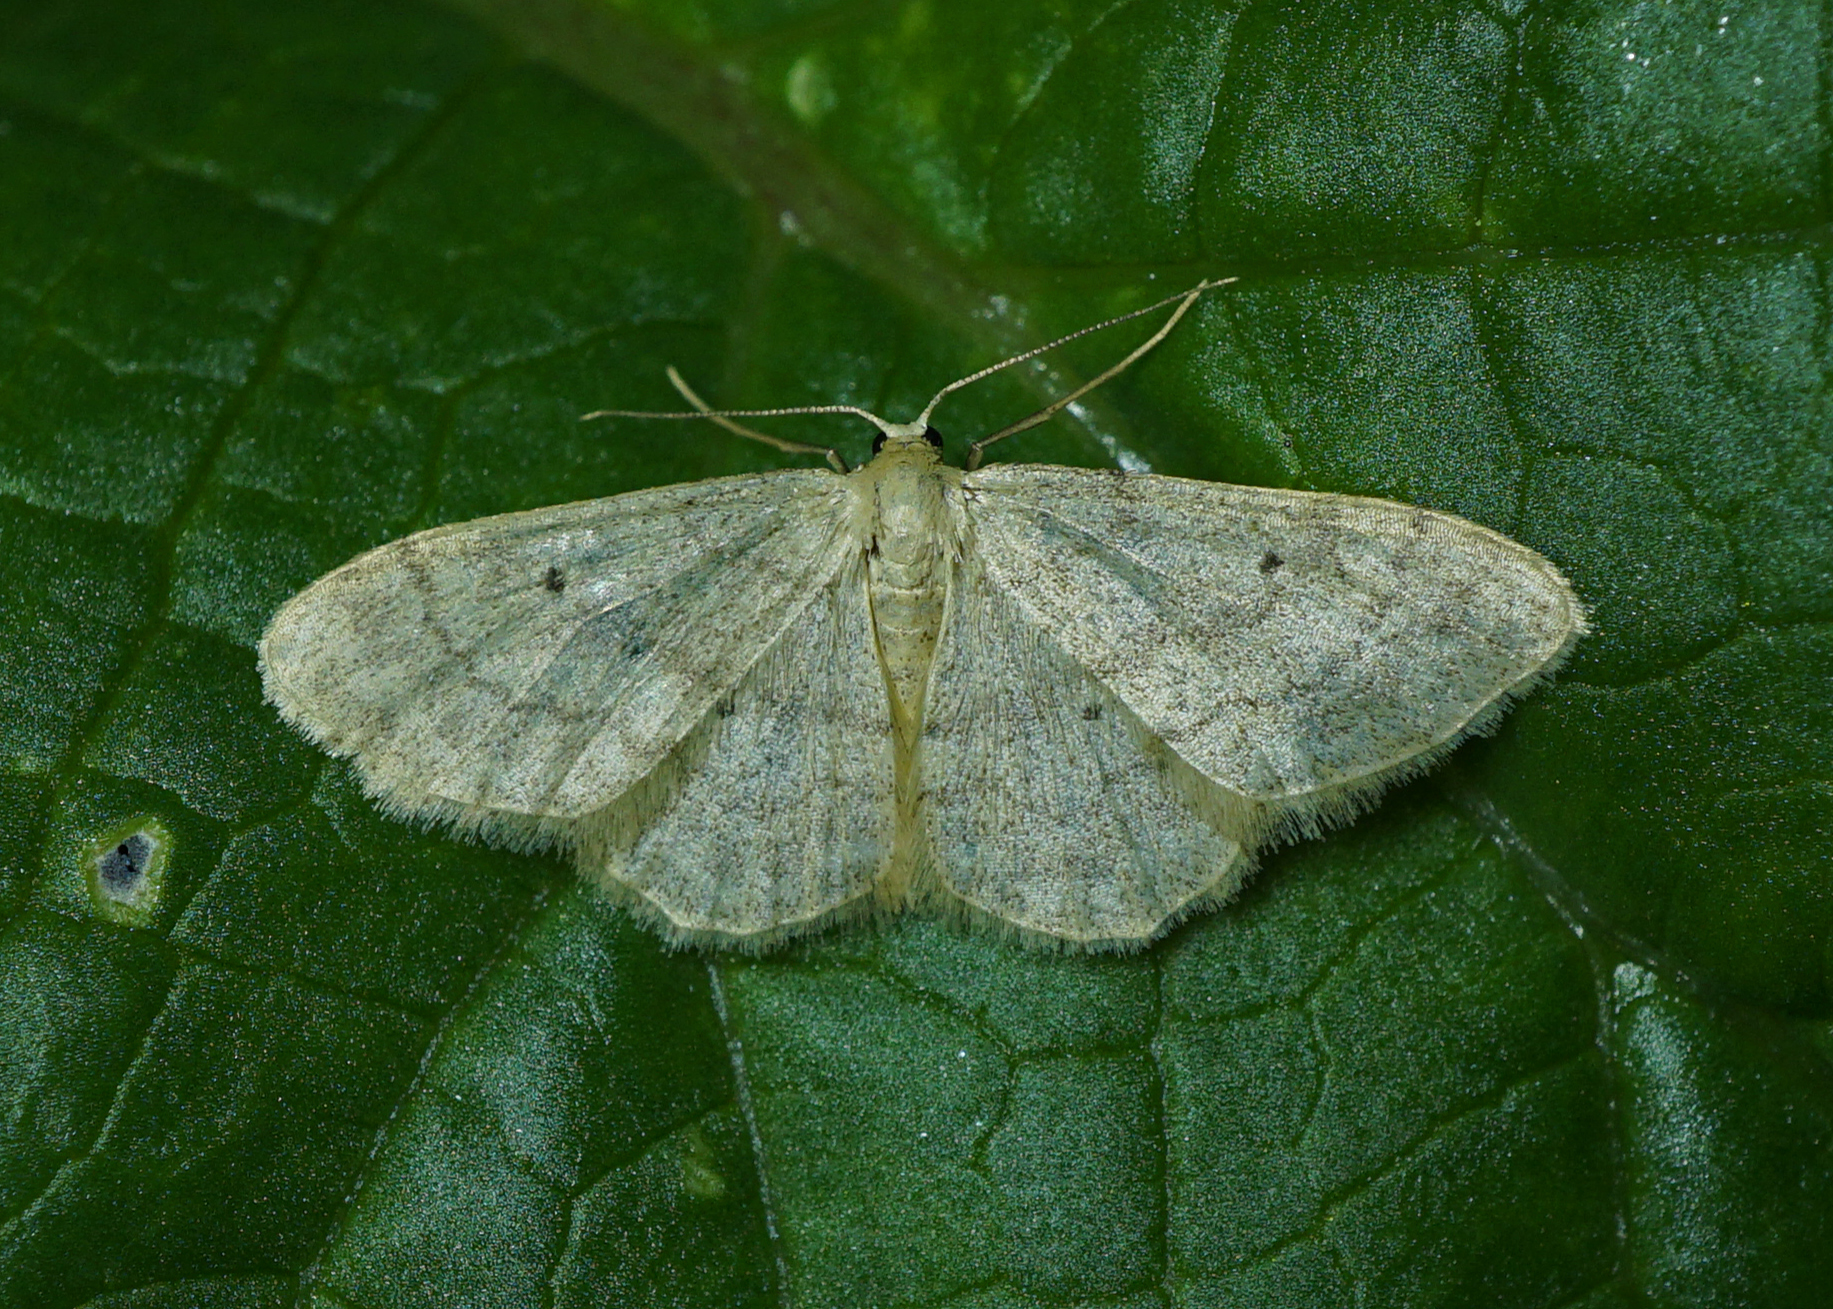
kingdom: Animalia
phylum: Arthropoda
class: Insecta
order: Lepidoptera
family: Geometridae
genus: Idaea
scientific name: Idaea biselata
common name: Small fan-footed wave
